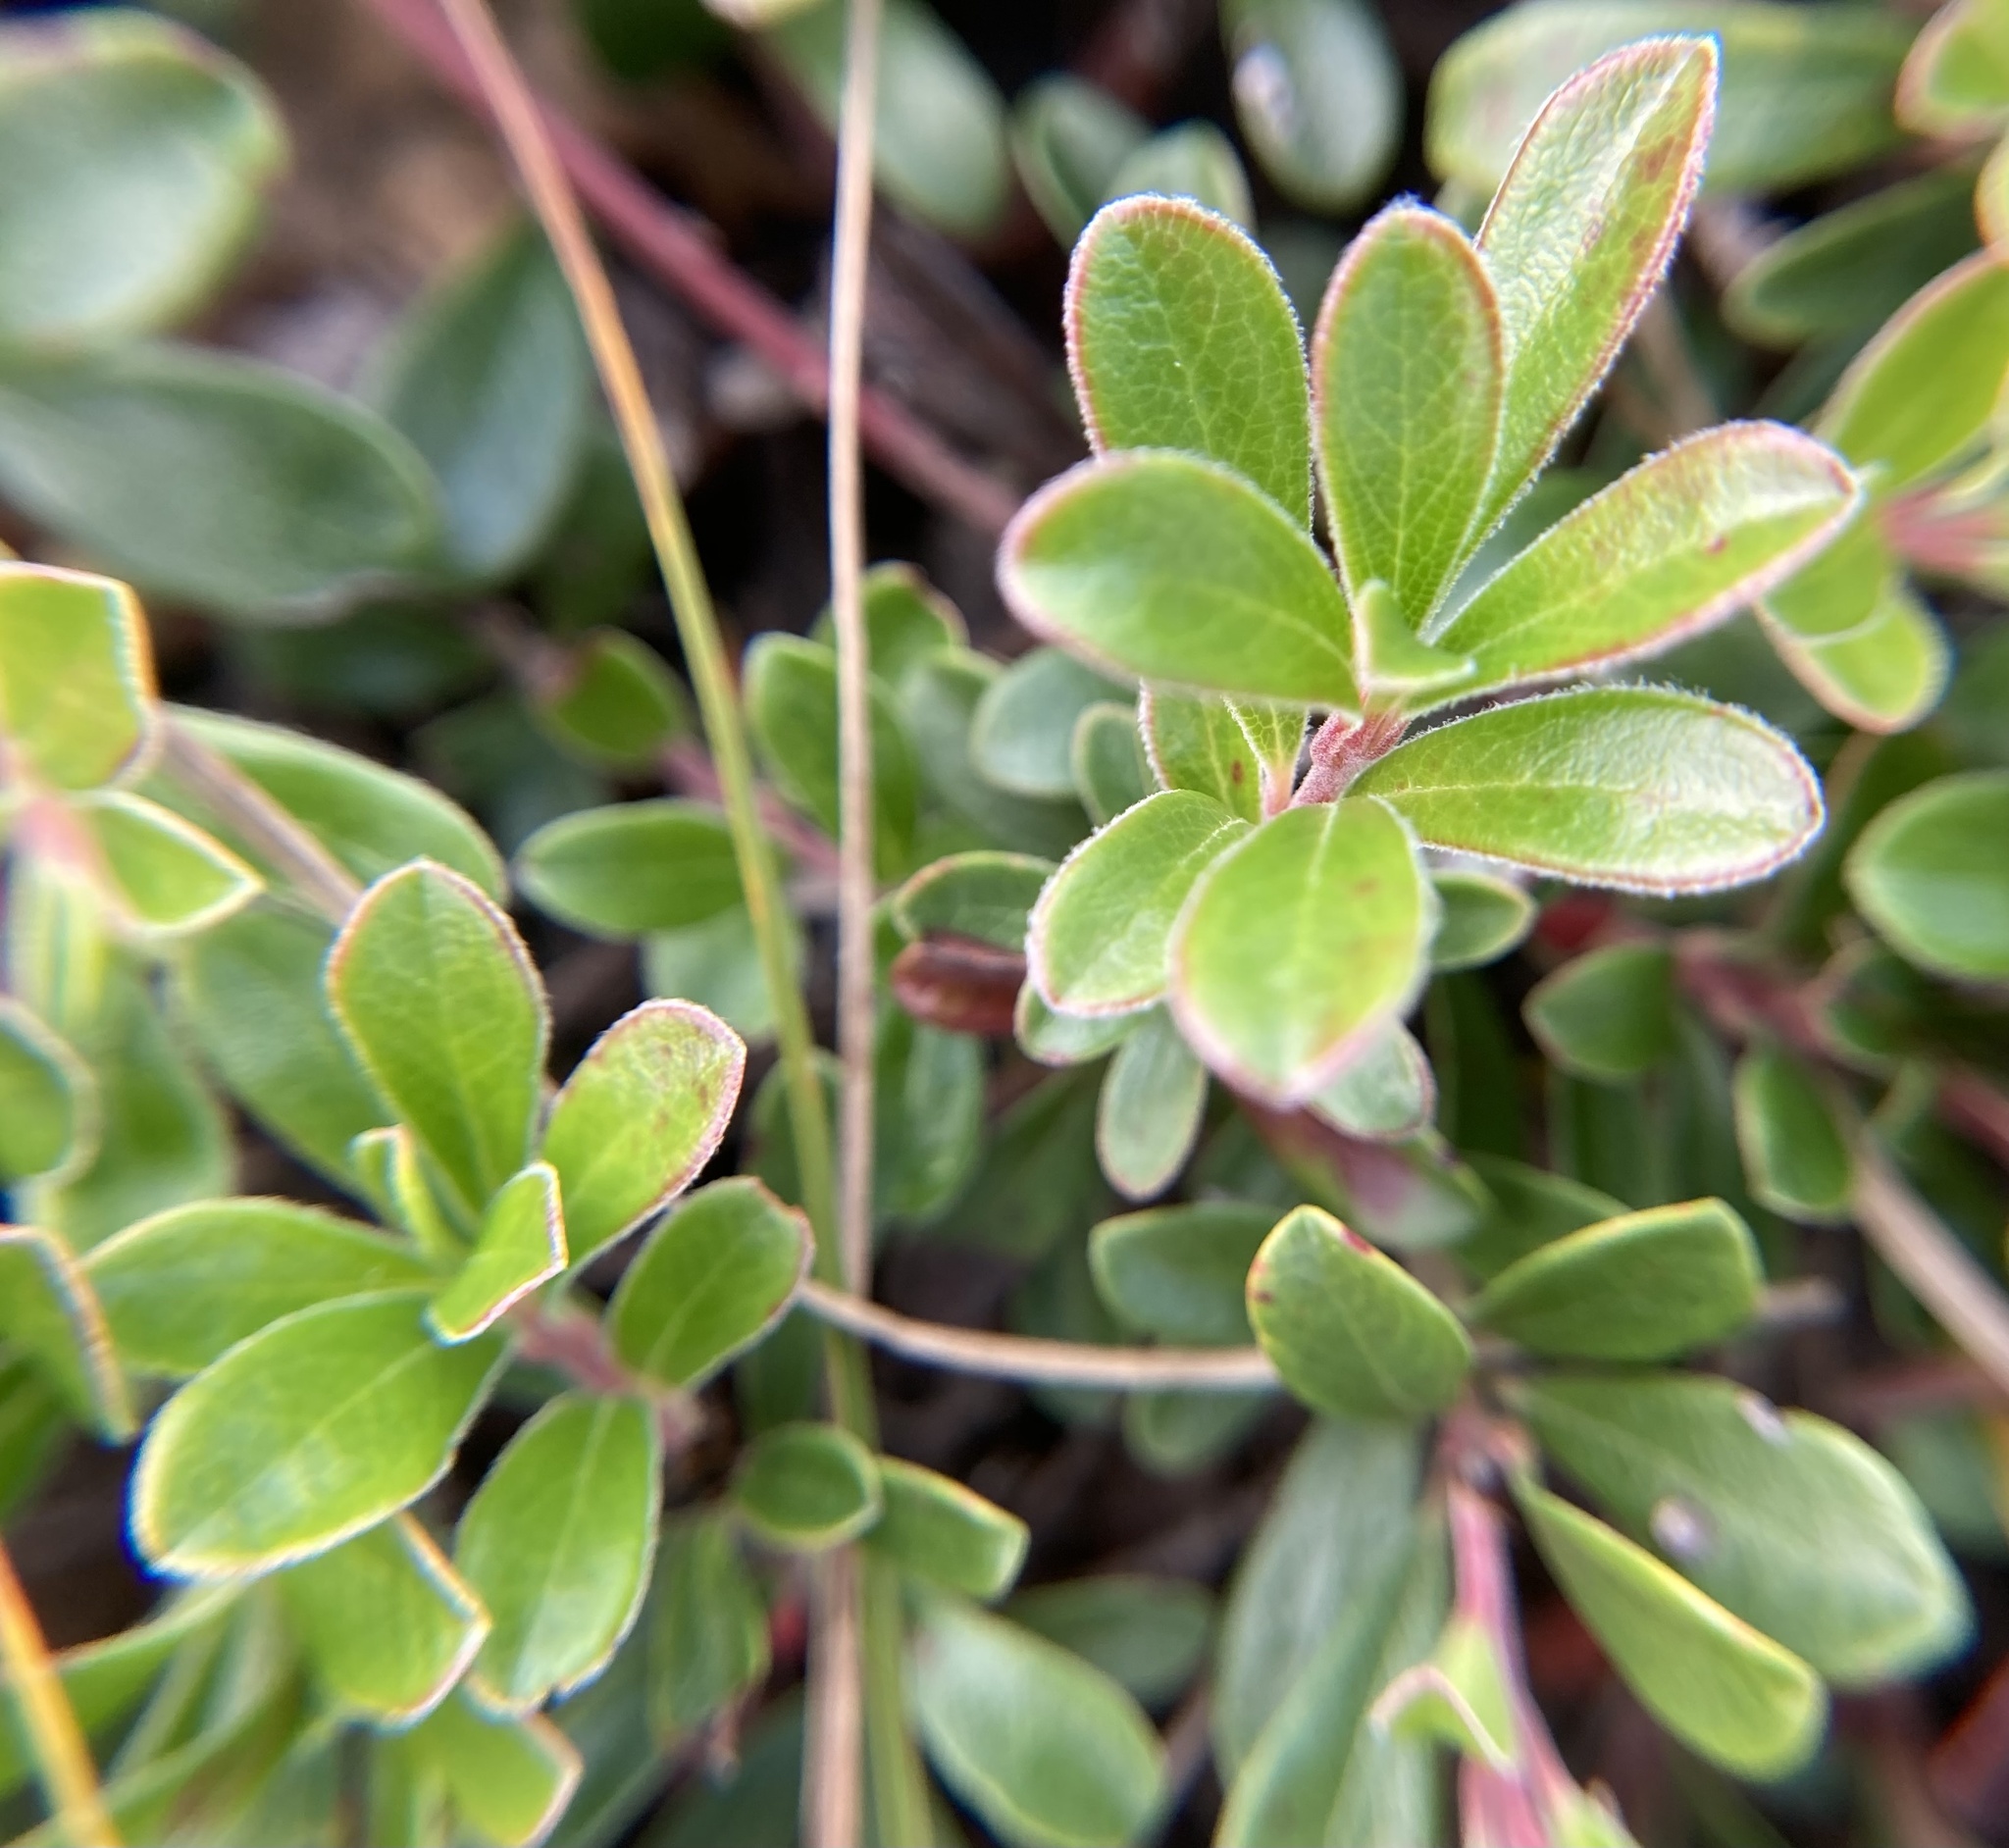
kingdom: Plantae
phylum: Tracheophyta
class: Magnoliopsida
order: Ericales
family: Ericaceae
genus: Arctostaphylos
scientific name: Arctostaphylos uva-ursi
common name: Bearberry
